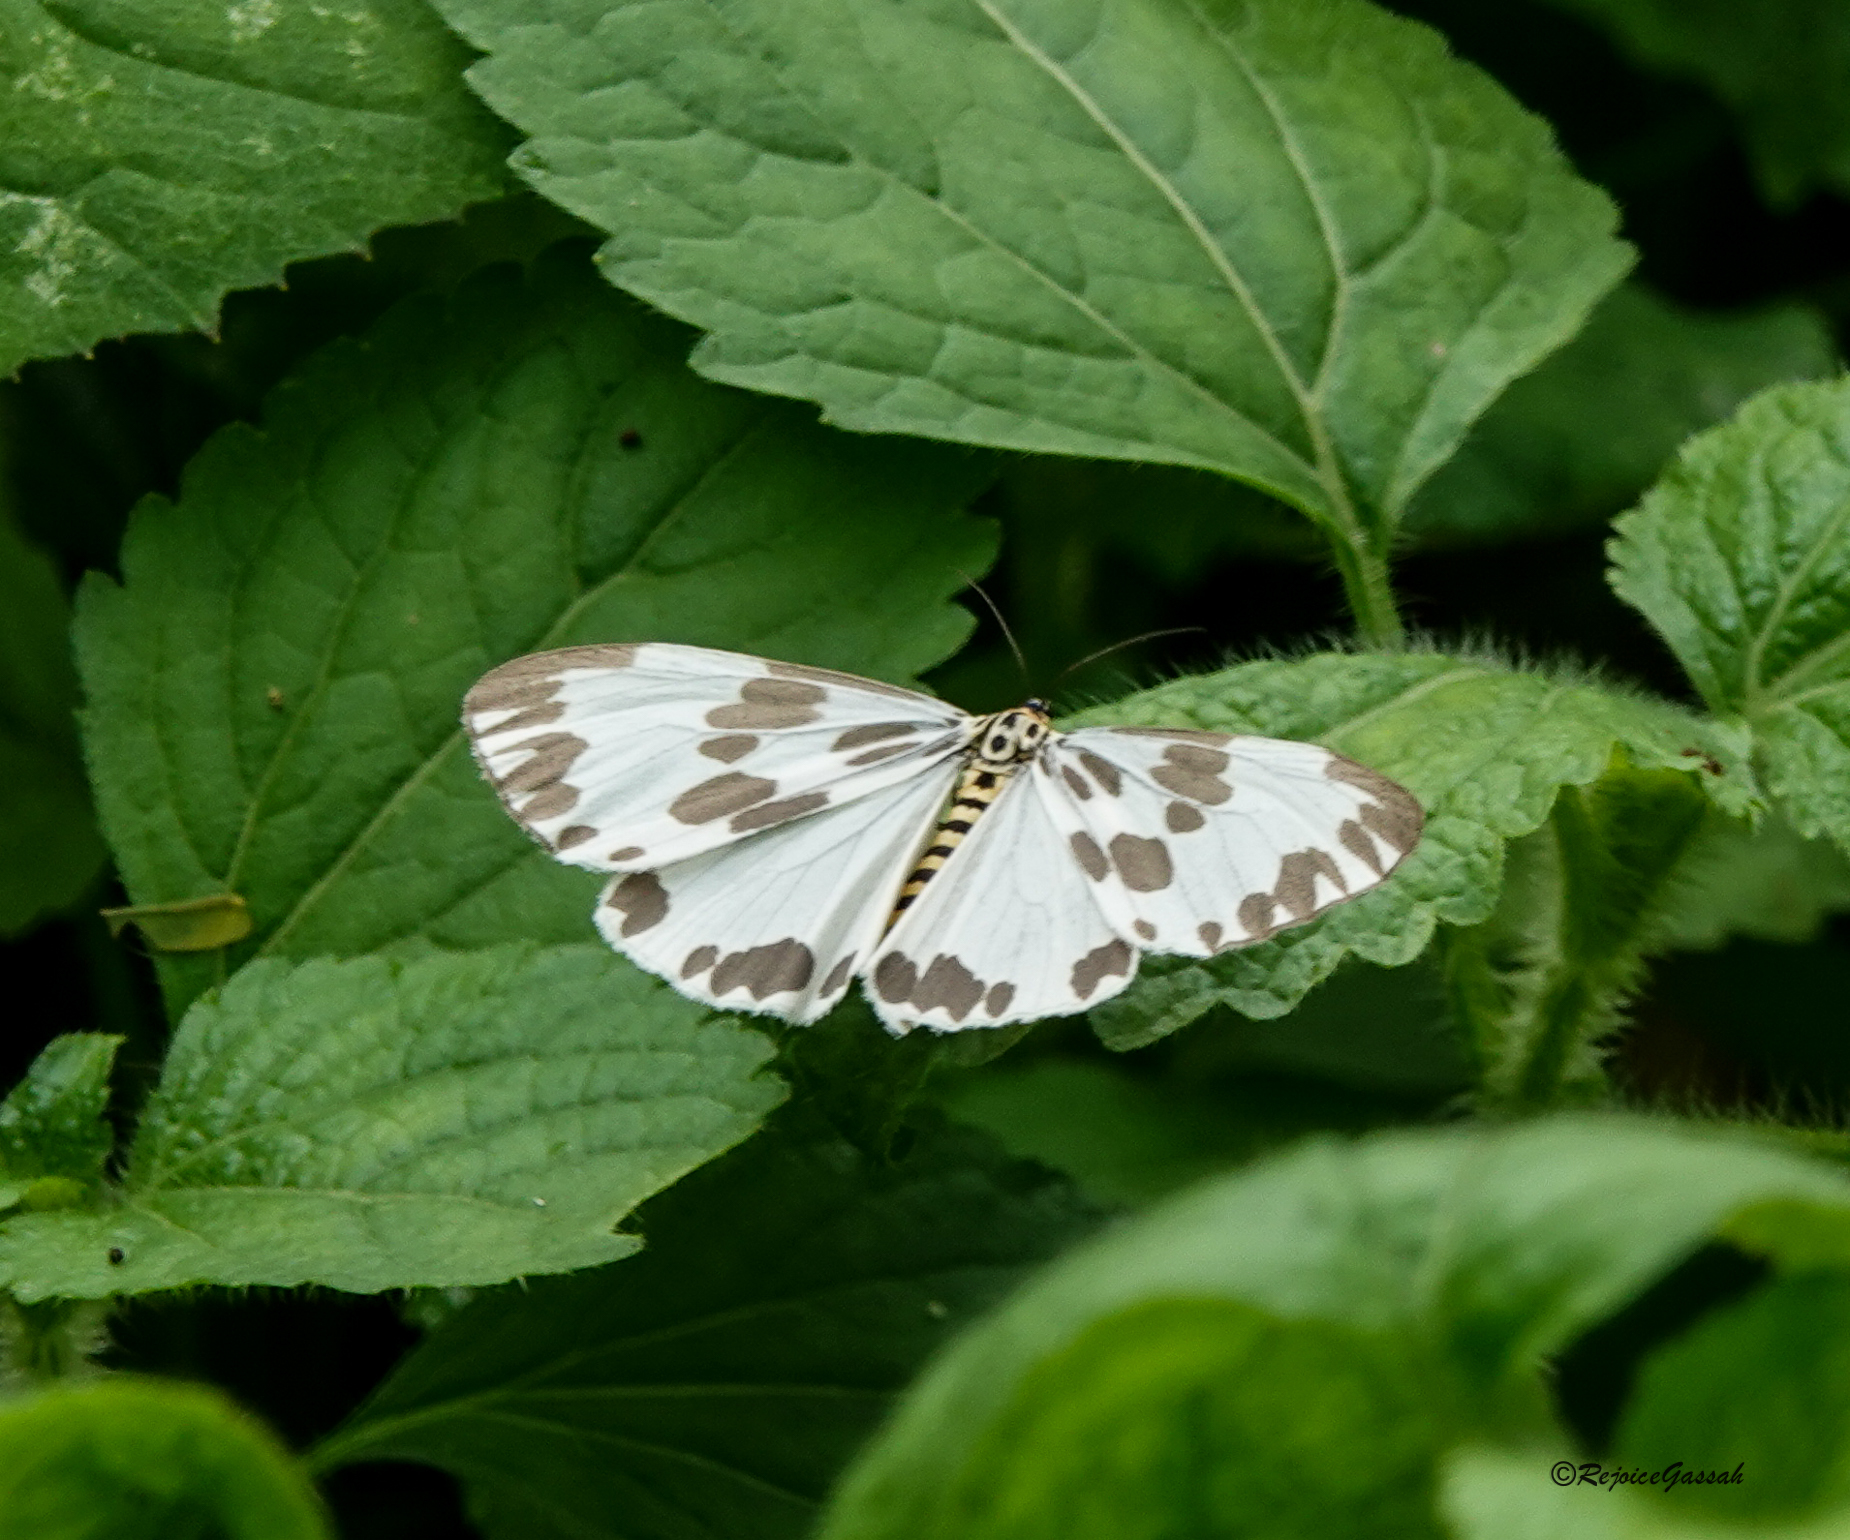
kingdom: Animalia
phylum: Arthropoda
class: Insecta
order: Lepidoptera
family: Erebidae
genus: Nyctemera
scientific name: Nyctemera cenis
